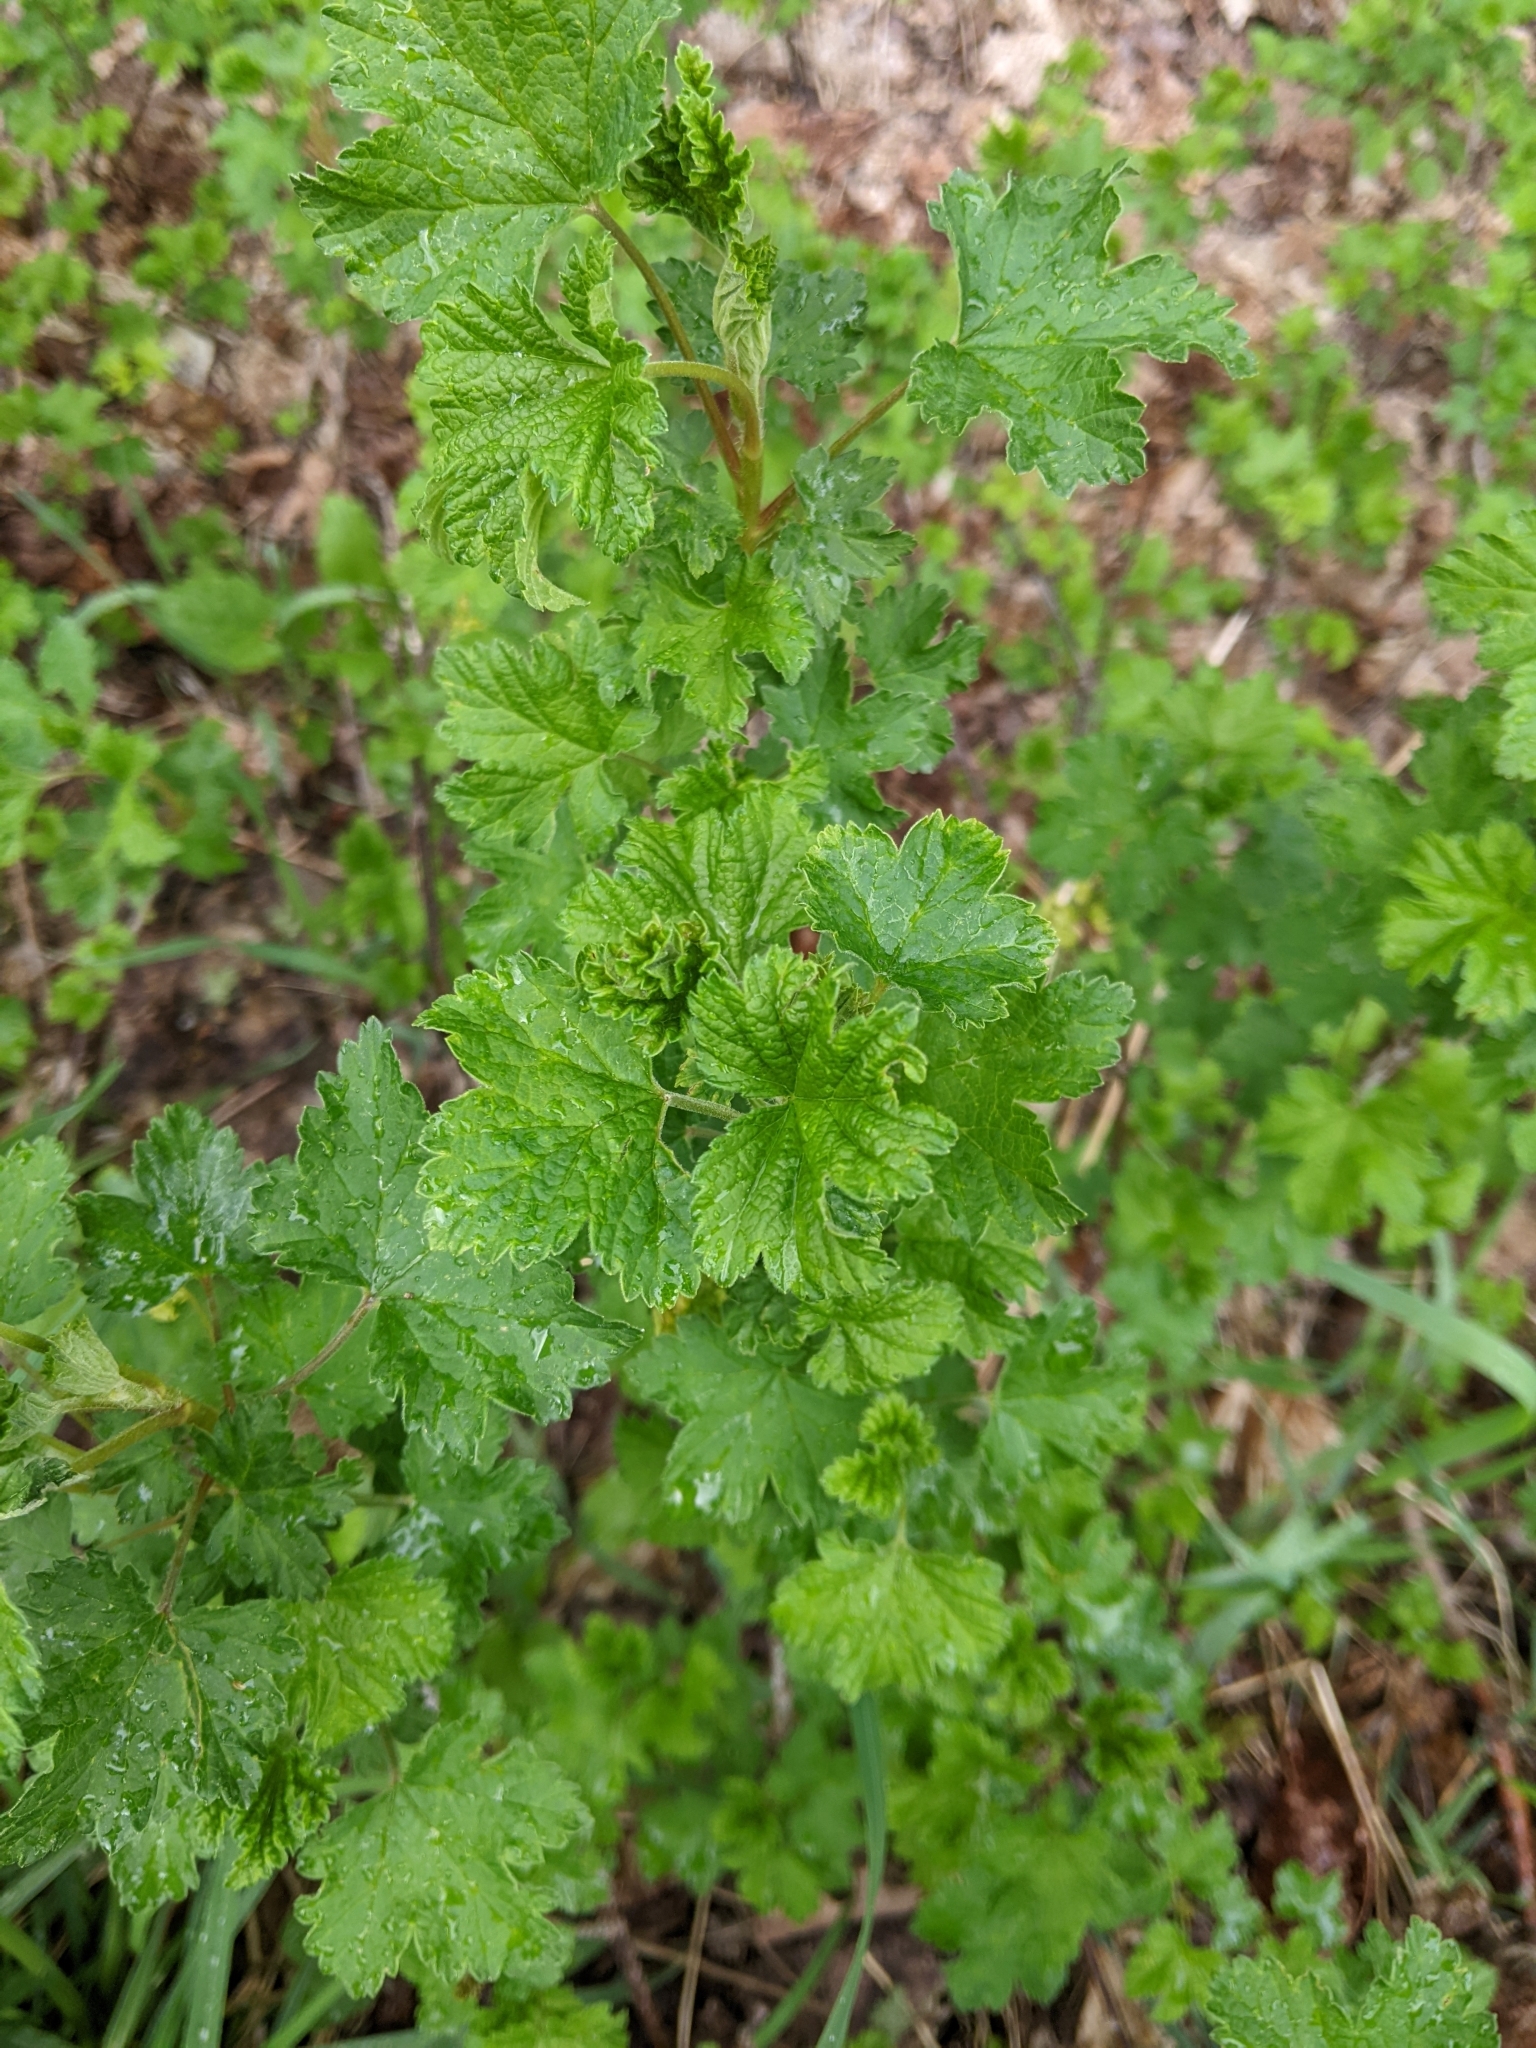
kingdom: Plantae
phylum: Tracheophyta
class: Magnoliopsida
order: Saxifragales
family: Grossulariaceae
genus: Ribes
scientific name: Ribes rubrum
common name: Red currant
